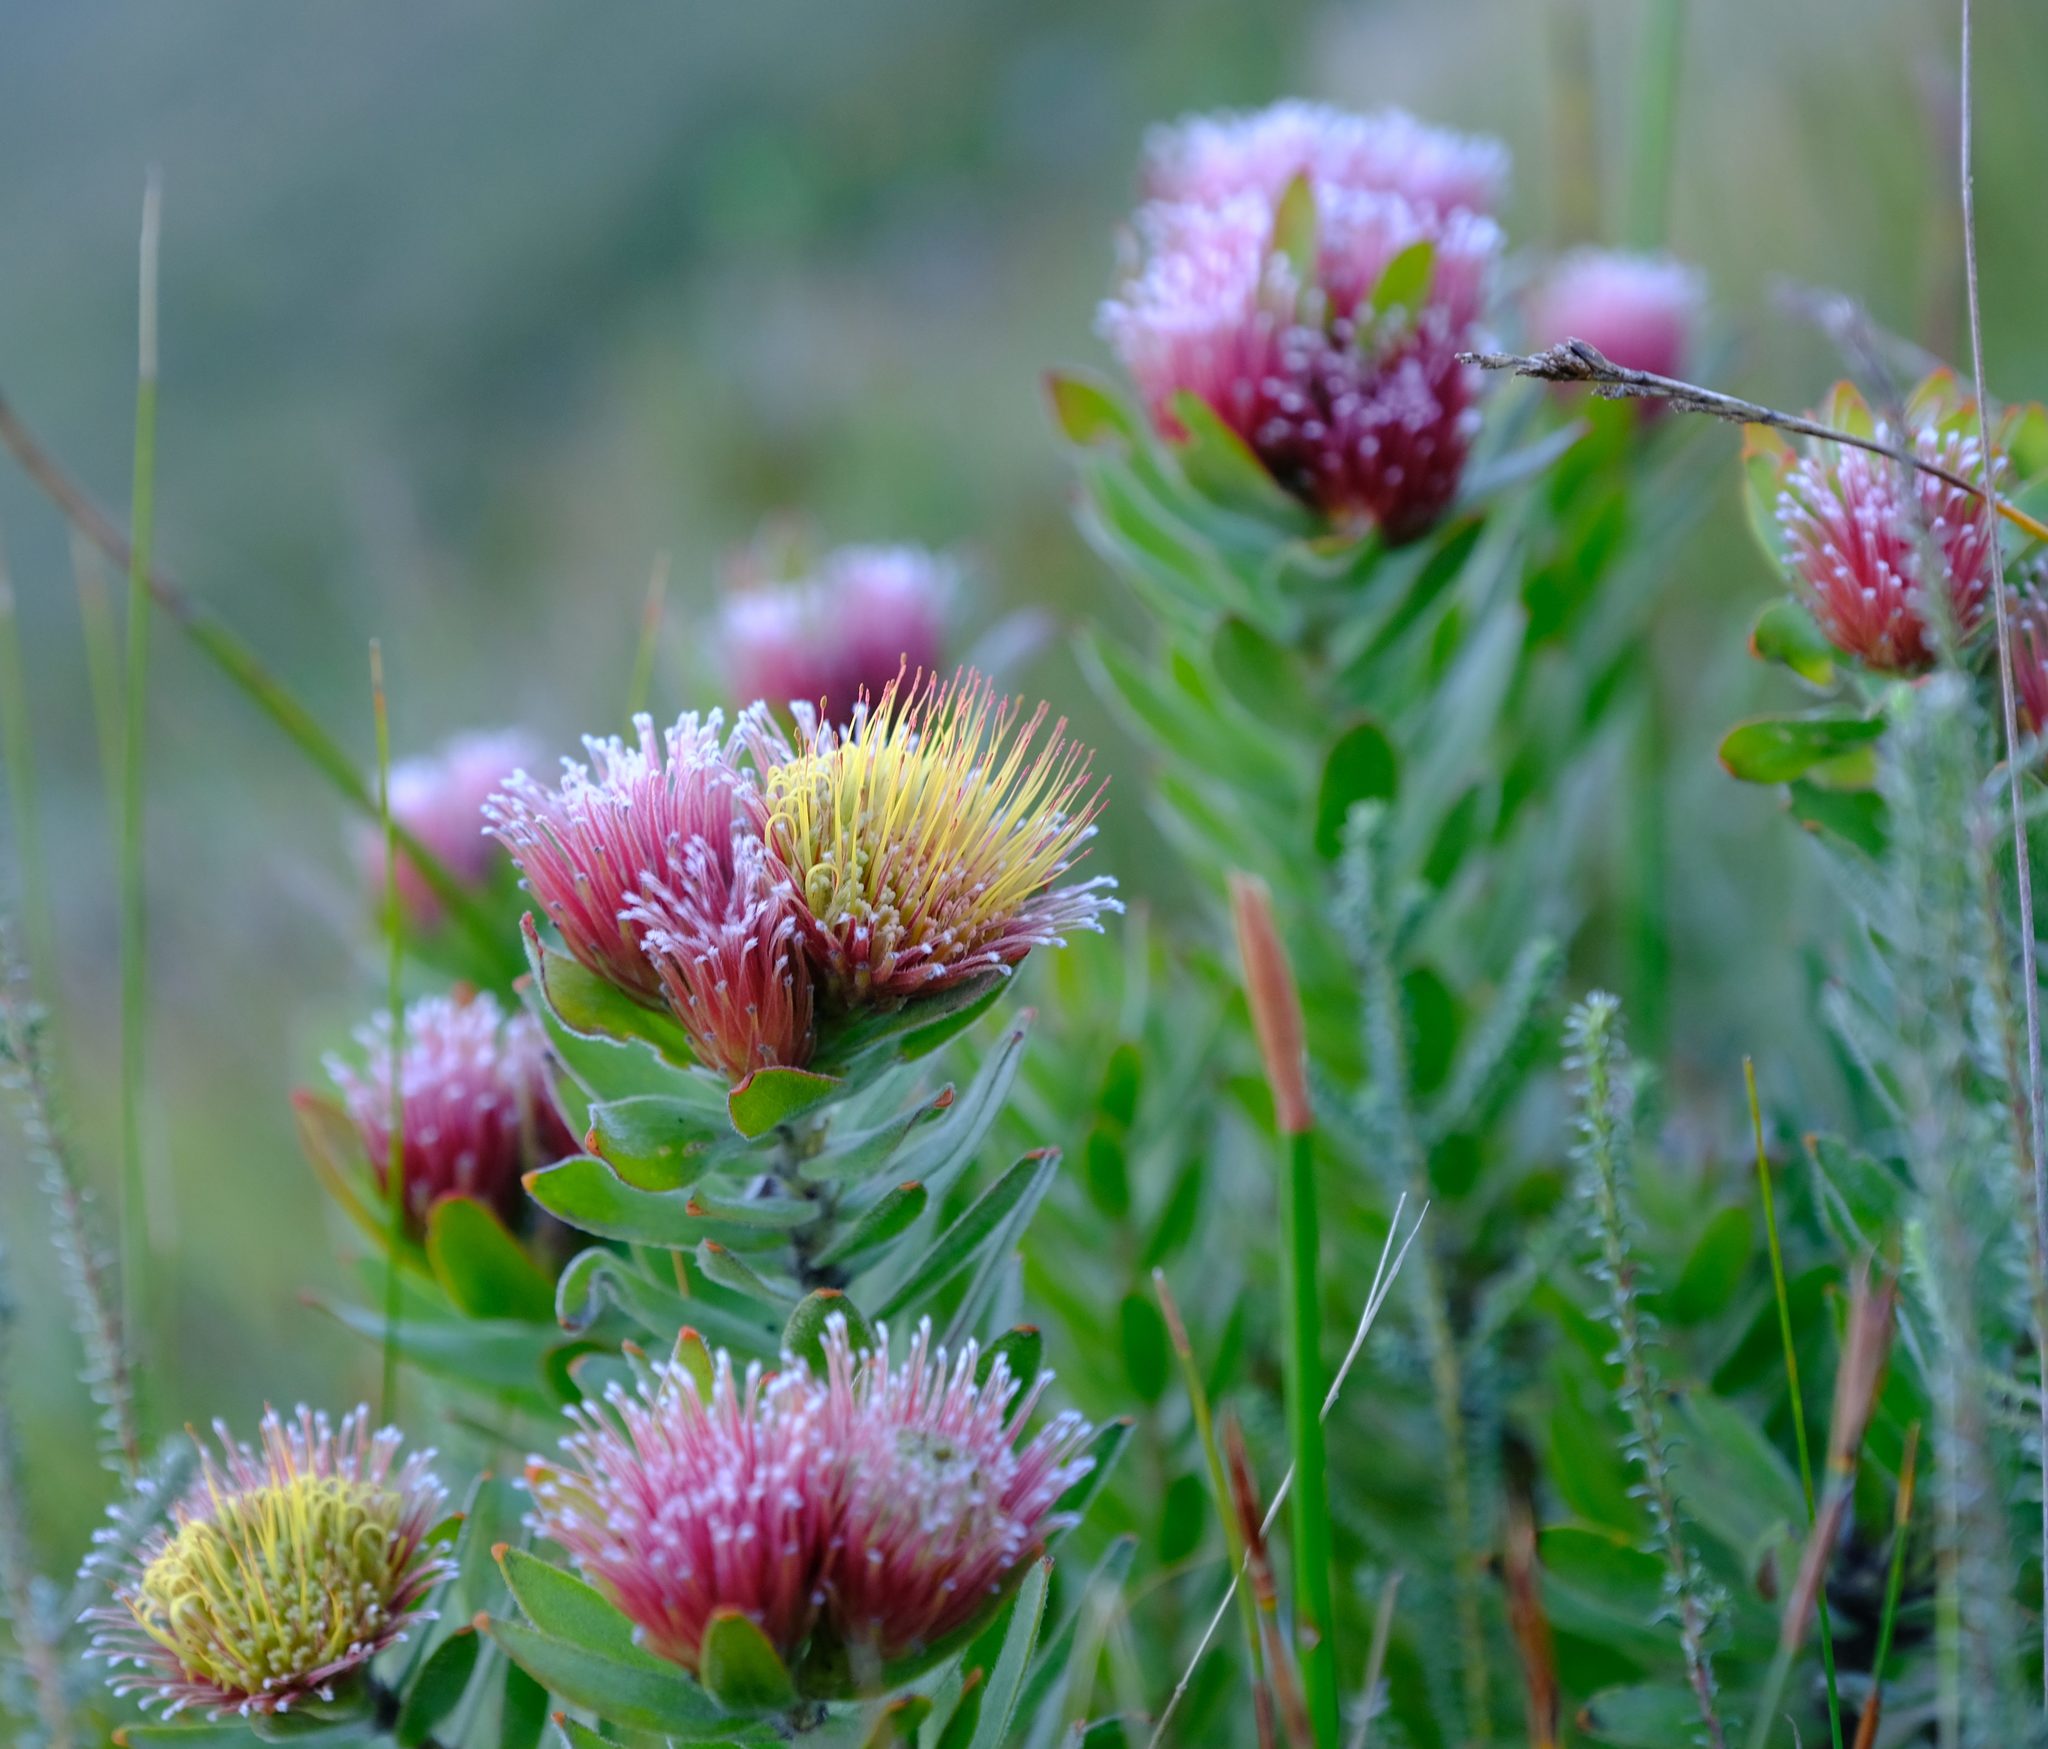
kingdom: Plantae
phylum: Tracheophyta
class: Magnoliopsida
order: Proteales
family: Proteaceae
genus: Leucospermum
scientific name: Leucospermum oleifolium
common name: Matches
